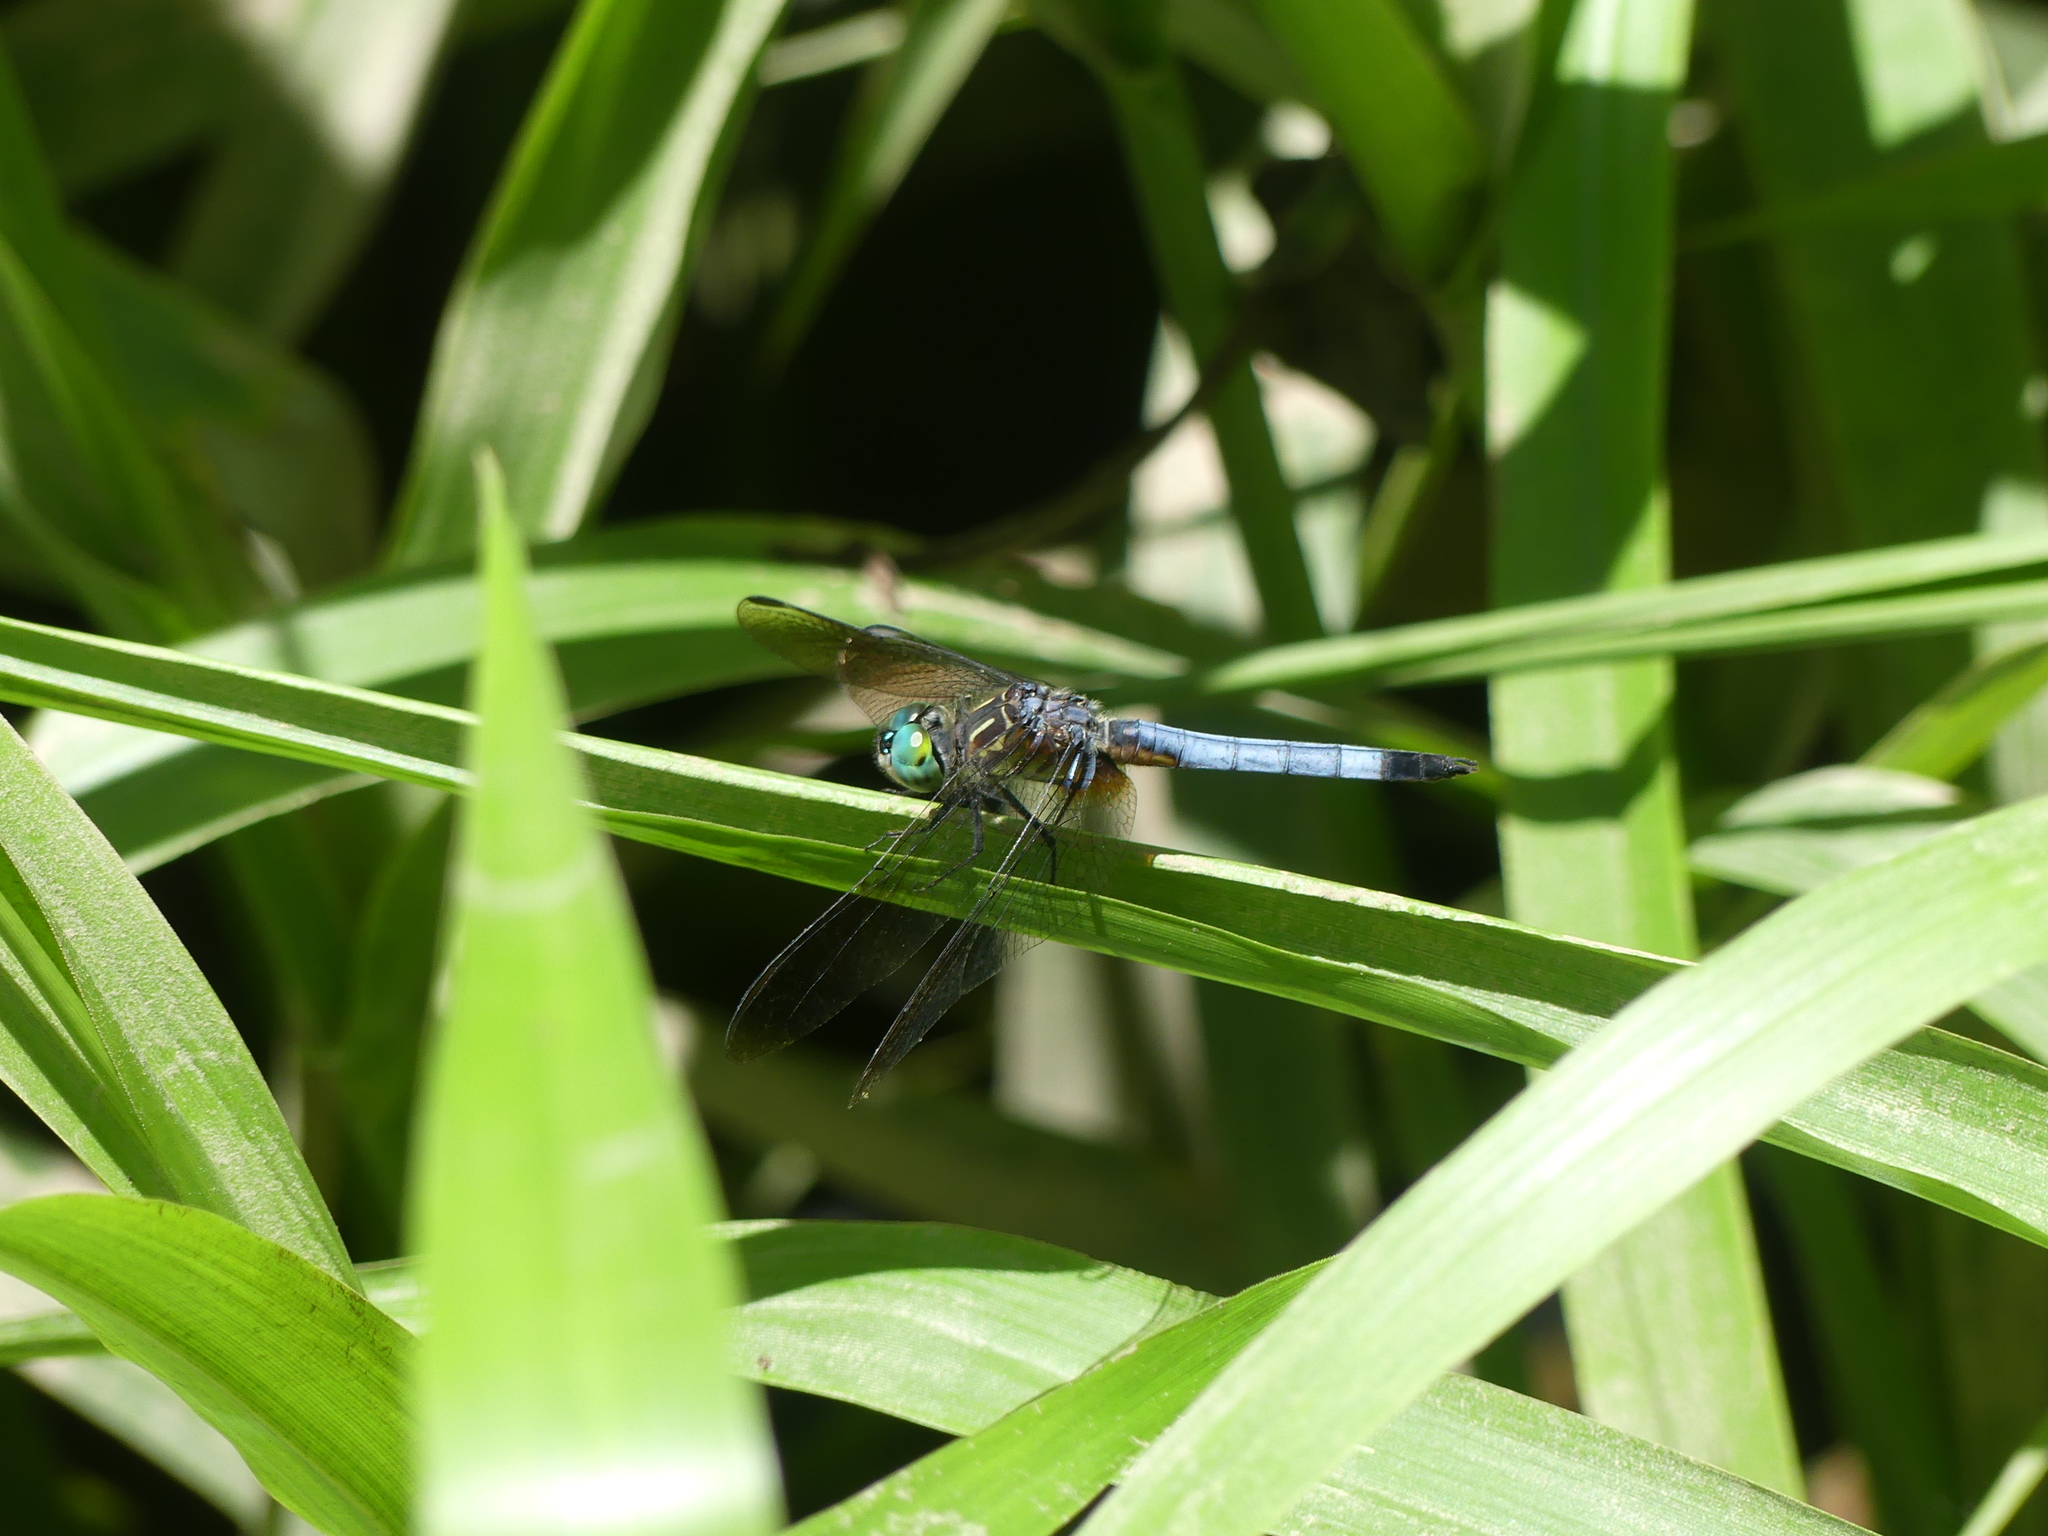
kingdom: Animalia
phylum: Arthropoda
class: Insecta
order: Odonata
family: Libellulidae
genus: Pachydiplax
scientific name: Pachydiplax longipennis
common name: Blue dasher
